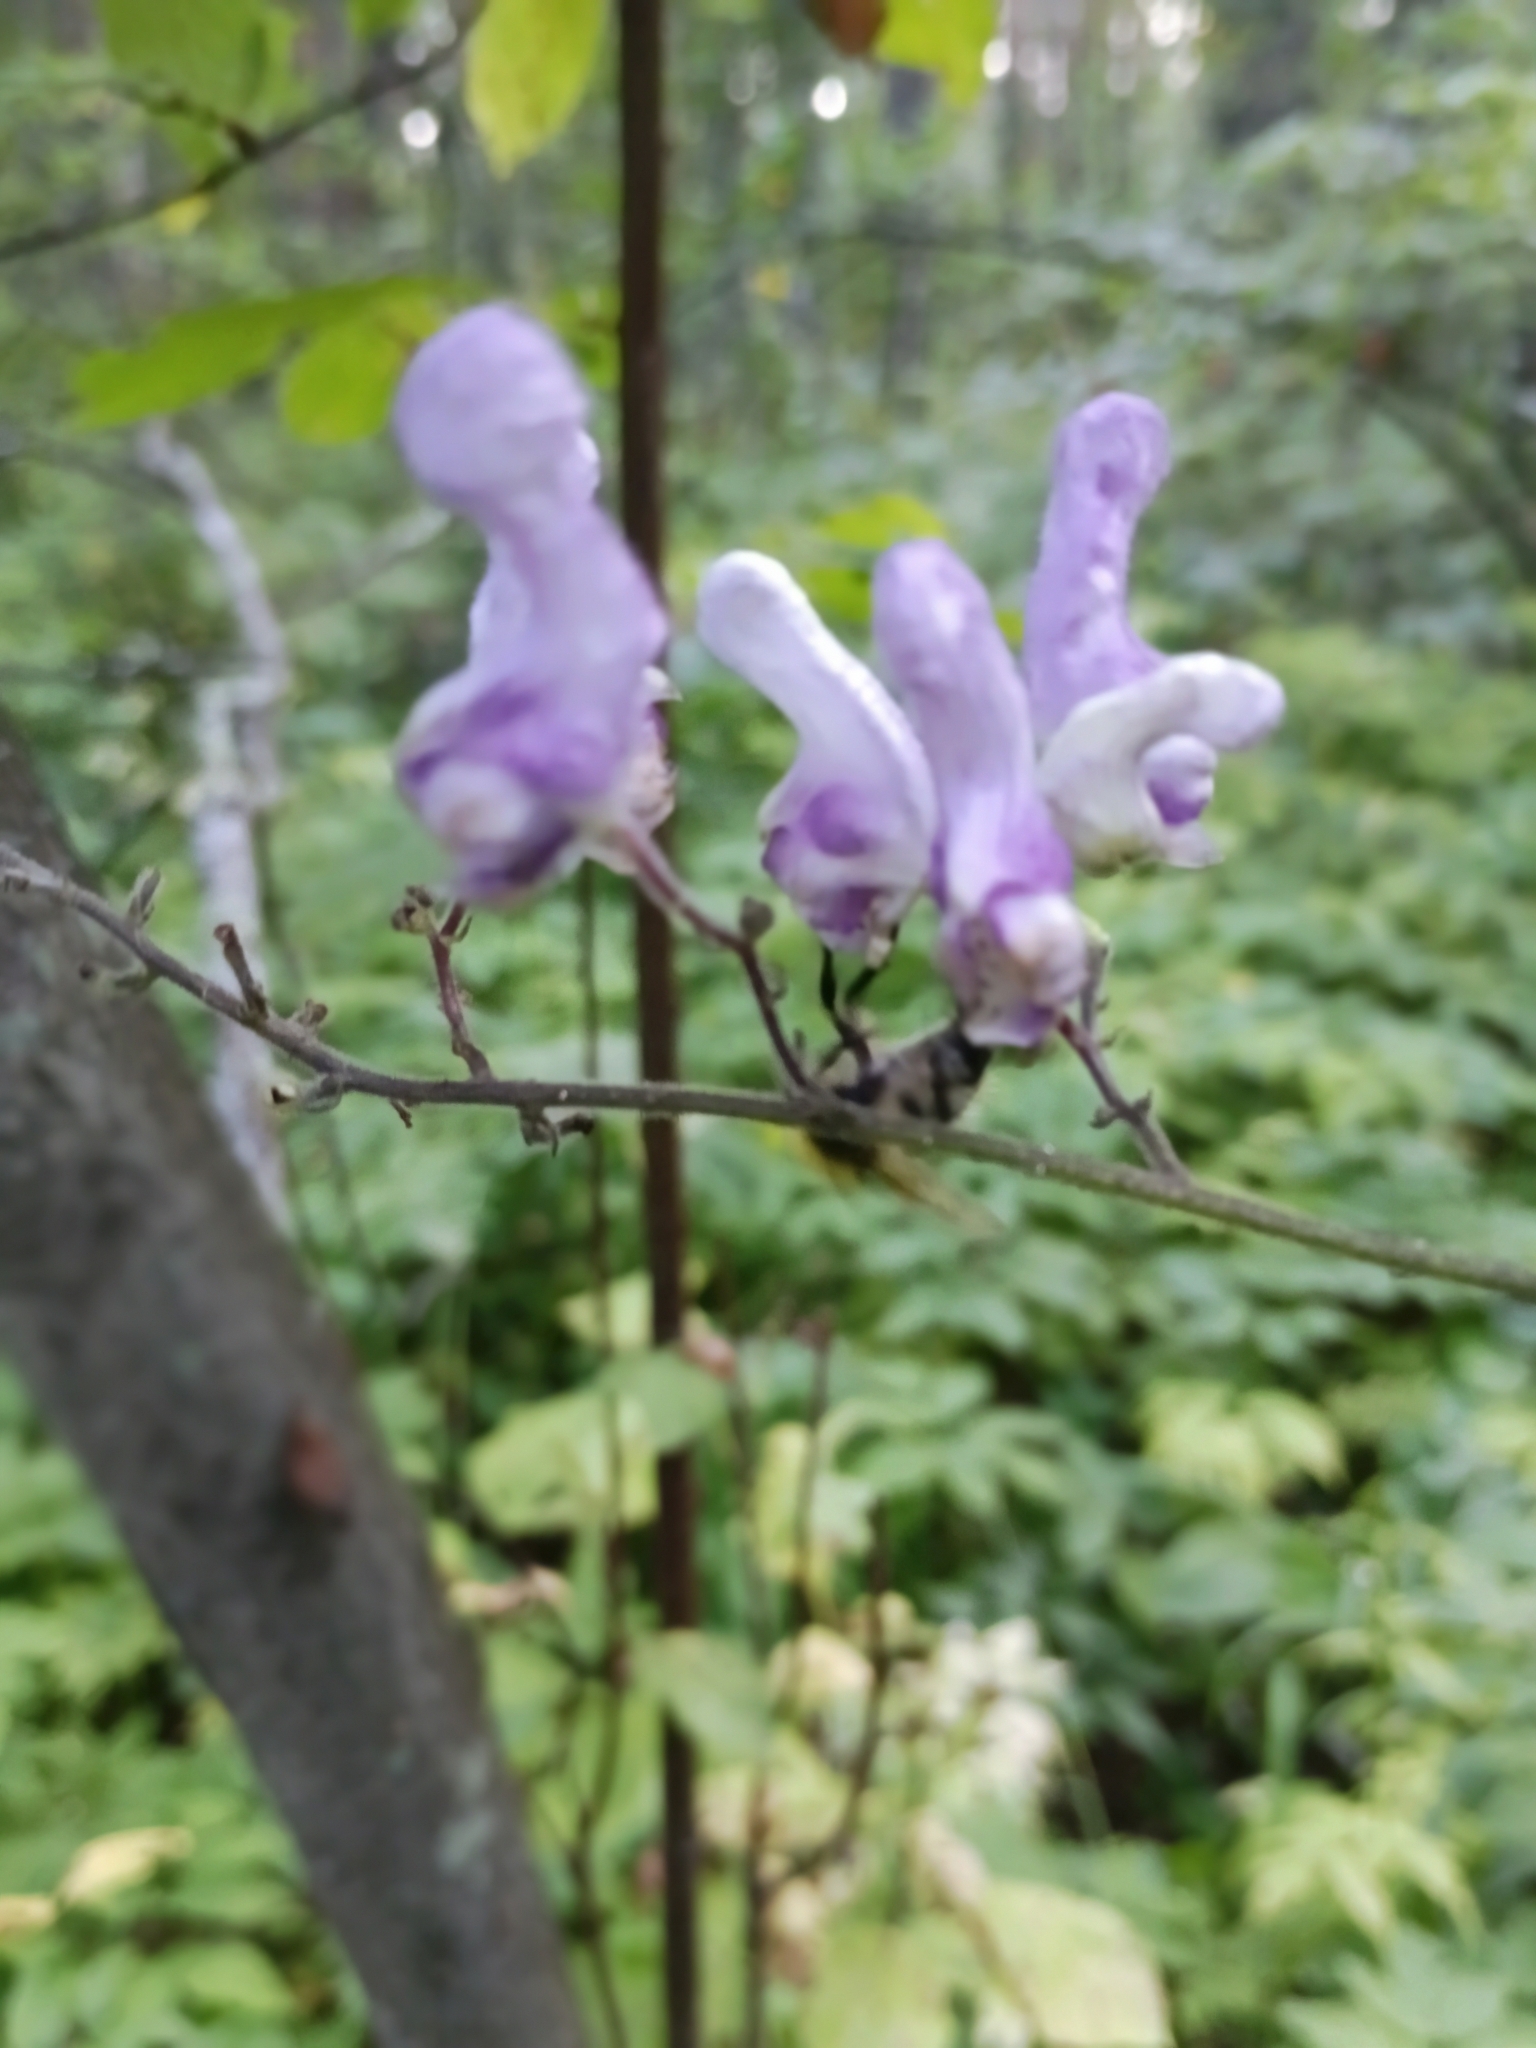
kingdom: Plantae
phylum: Tracheophyta
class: Magnoliopsida
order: Ranunculales
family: Ranunculaceae
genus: Aconitum
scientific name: Aconitum septentrionale
